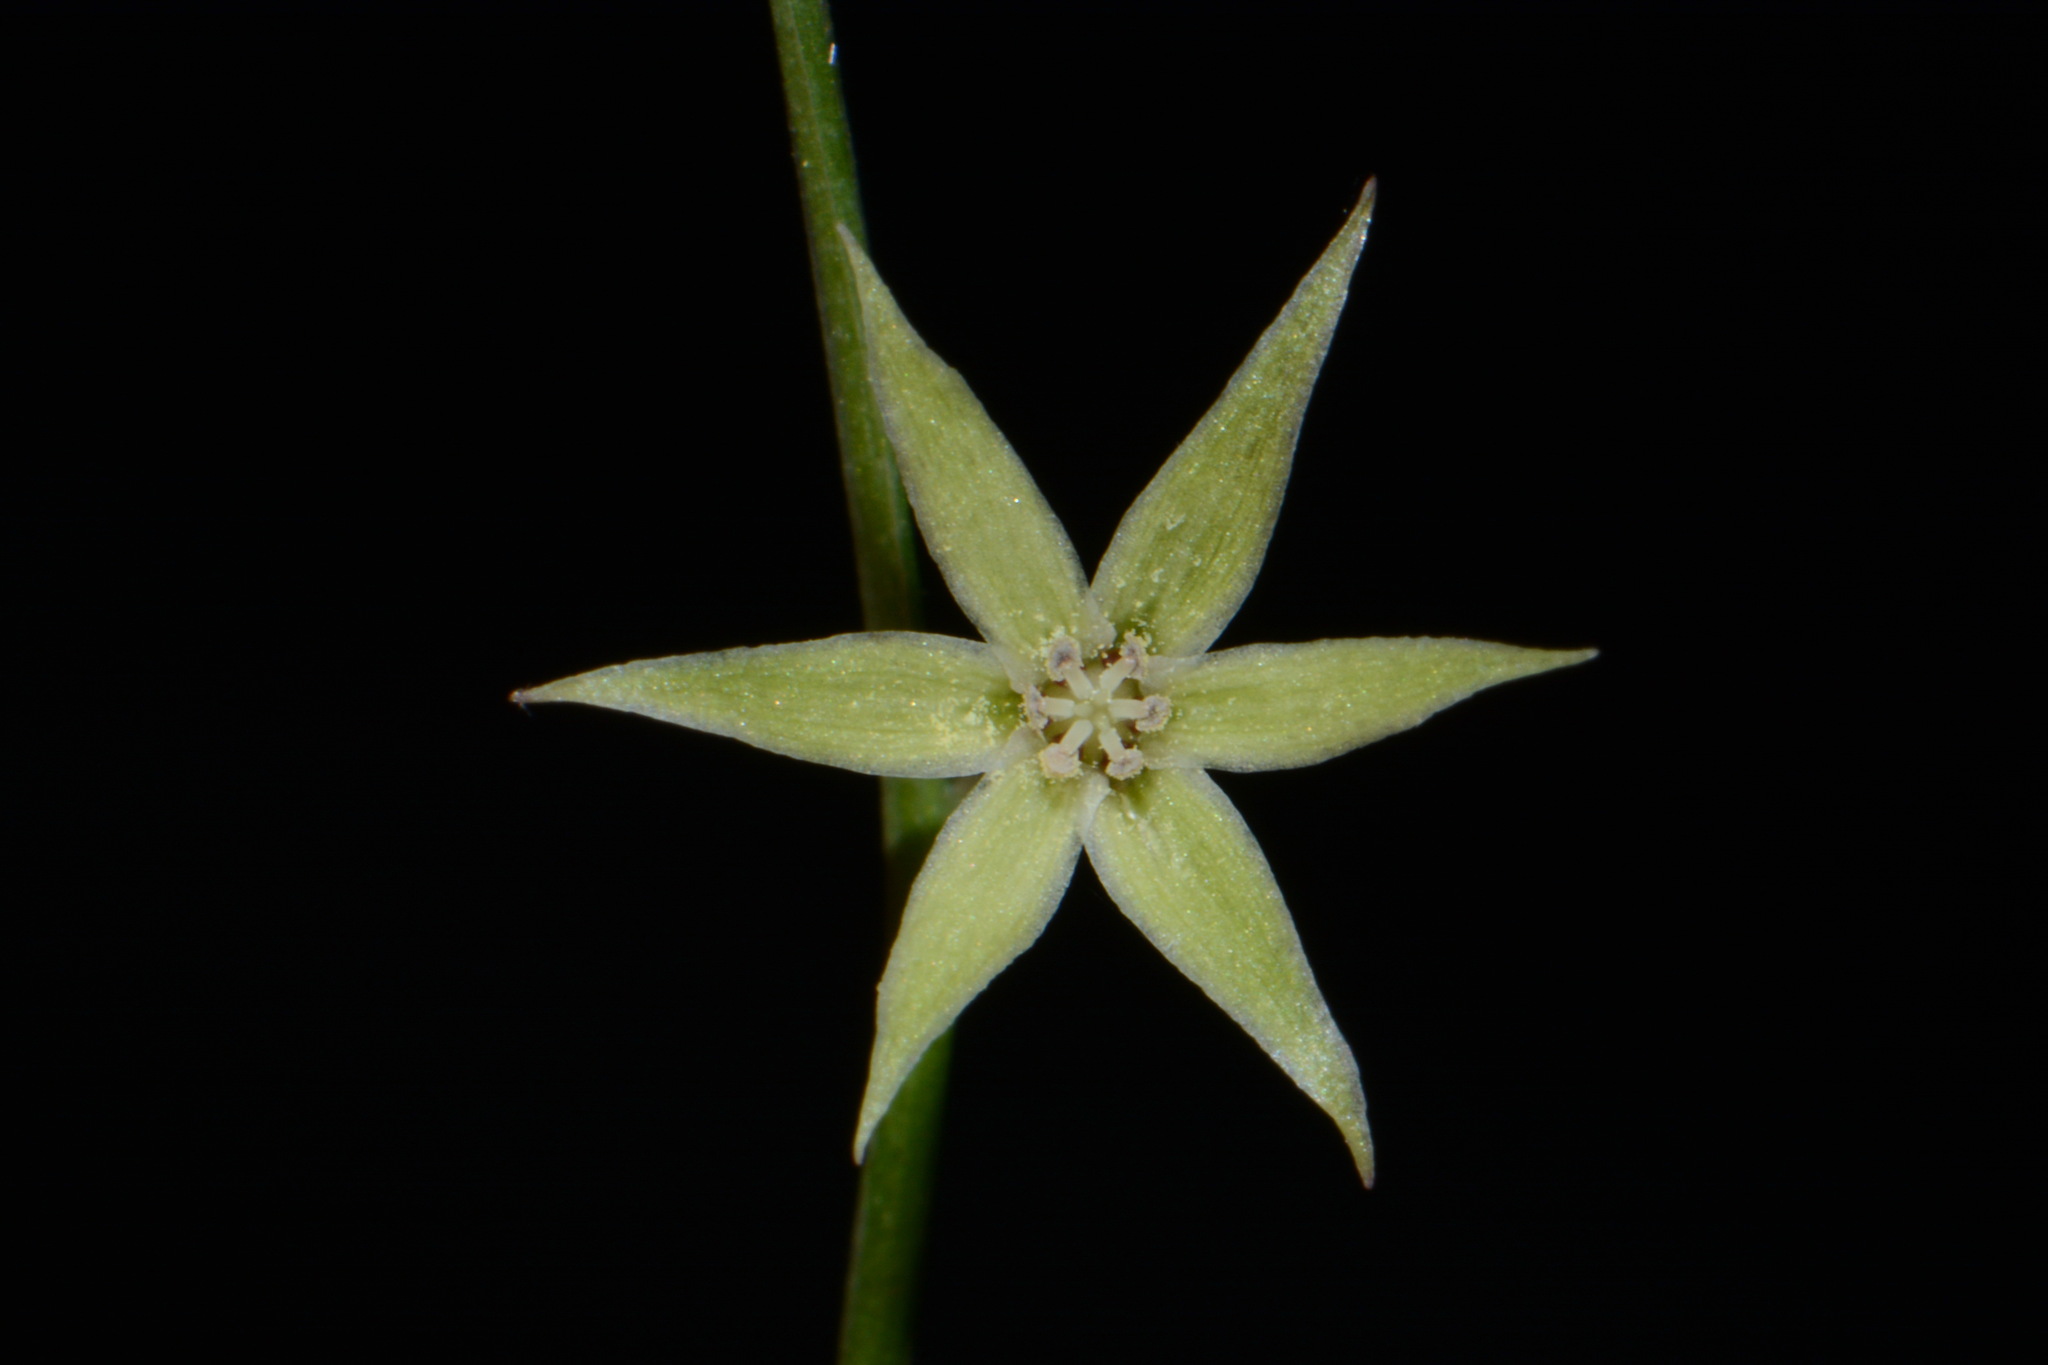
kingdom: Plantae
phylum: Tracheophyta
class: Liliopsida
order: Liliales
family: Melanthiaceae
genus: Stenanthium
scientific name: Stenanthium gramineum
